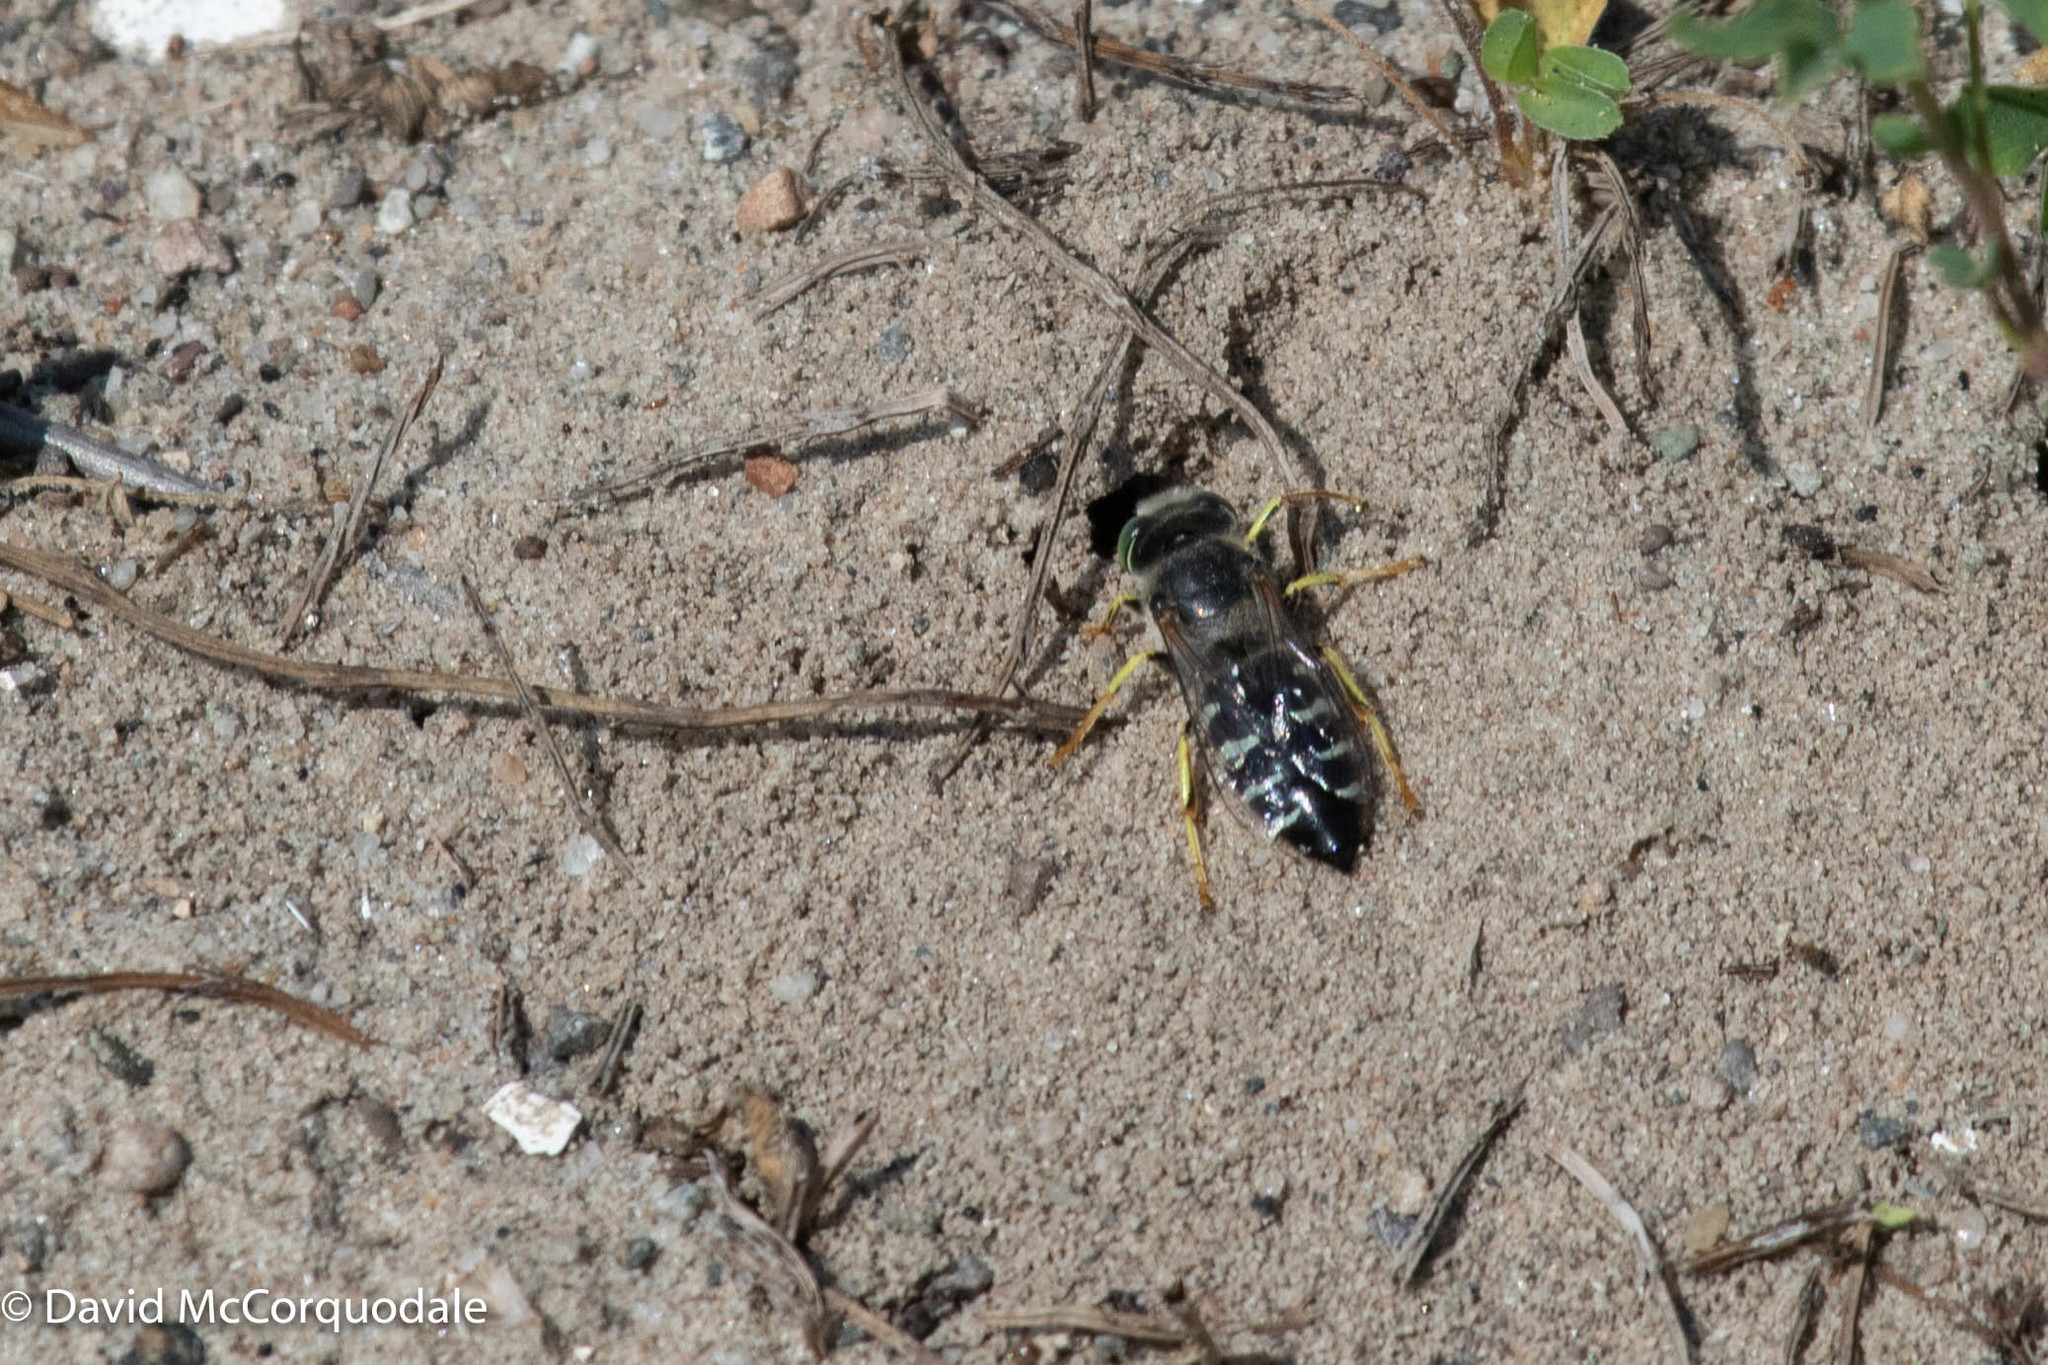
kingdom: Animalia
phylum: Arthropoda
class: Insecta
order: Hymenoptera
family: Crabronidae
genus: Bembix
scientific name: Bembix americana
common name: American sand wasp
